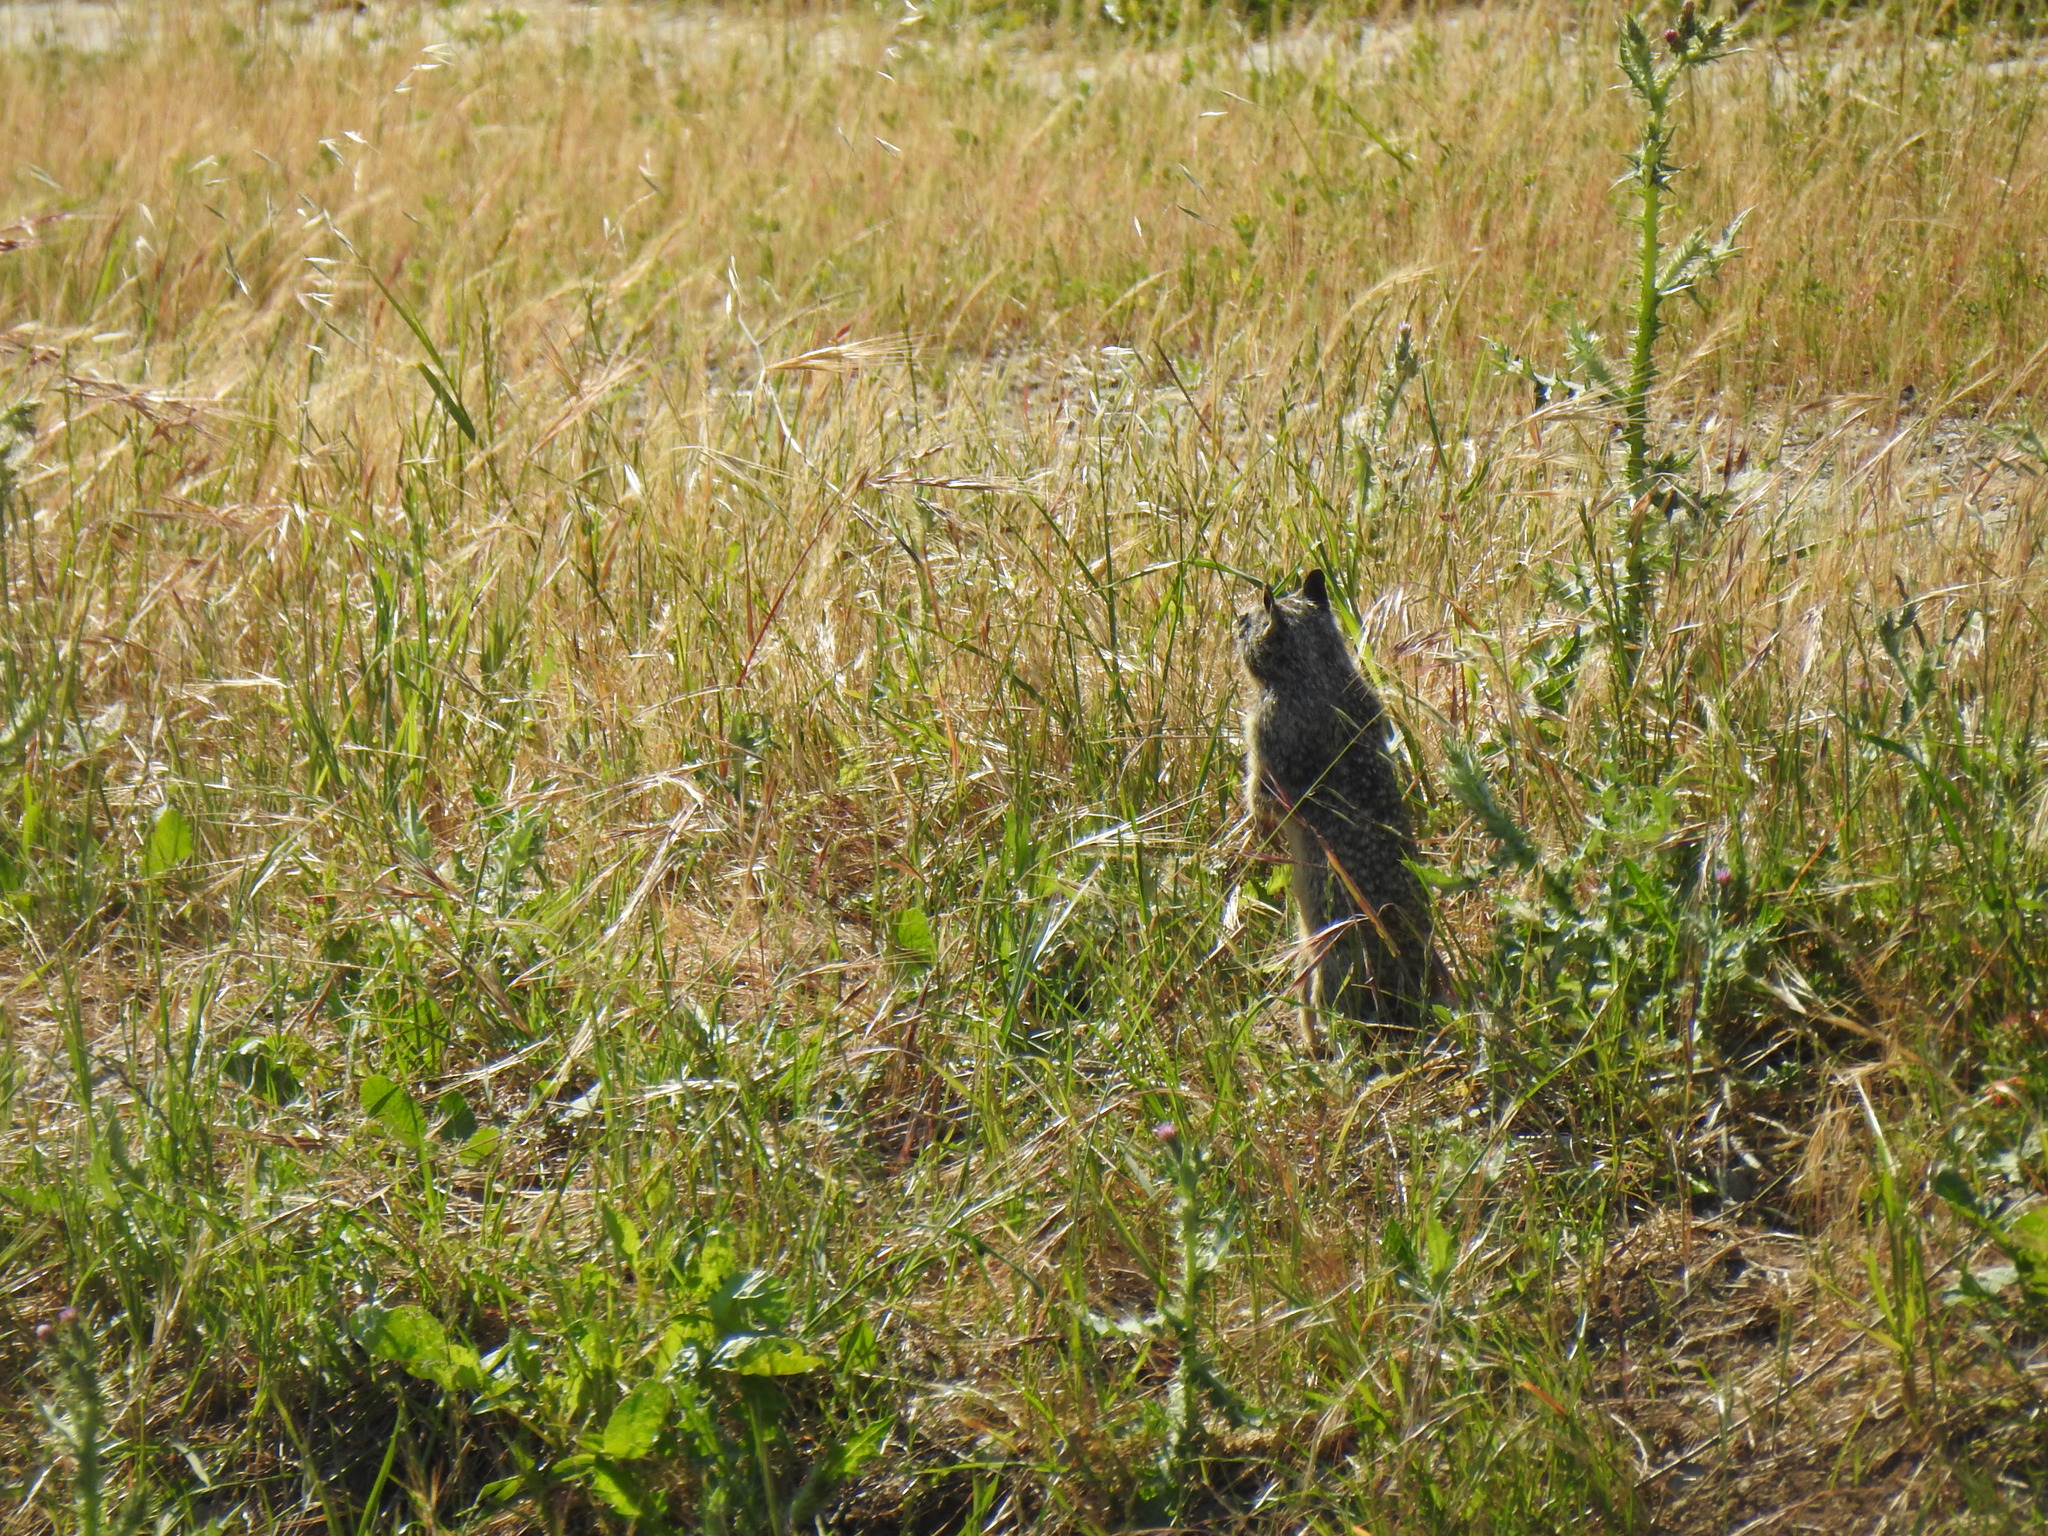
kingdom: Animalia
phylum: Chordata
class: Mammalia
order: Rodentia
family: Sciuridae
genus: Otospermophilus
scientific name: Otospermophilus beecheyi
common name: California ground squirrel
